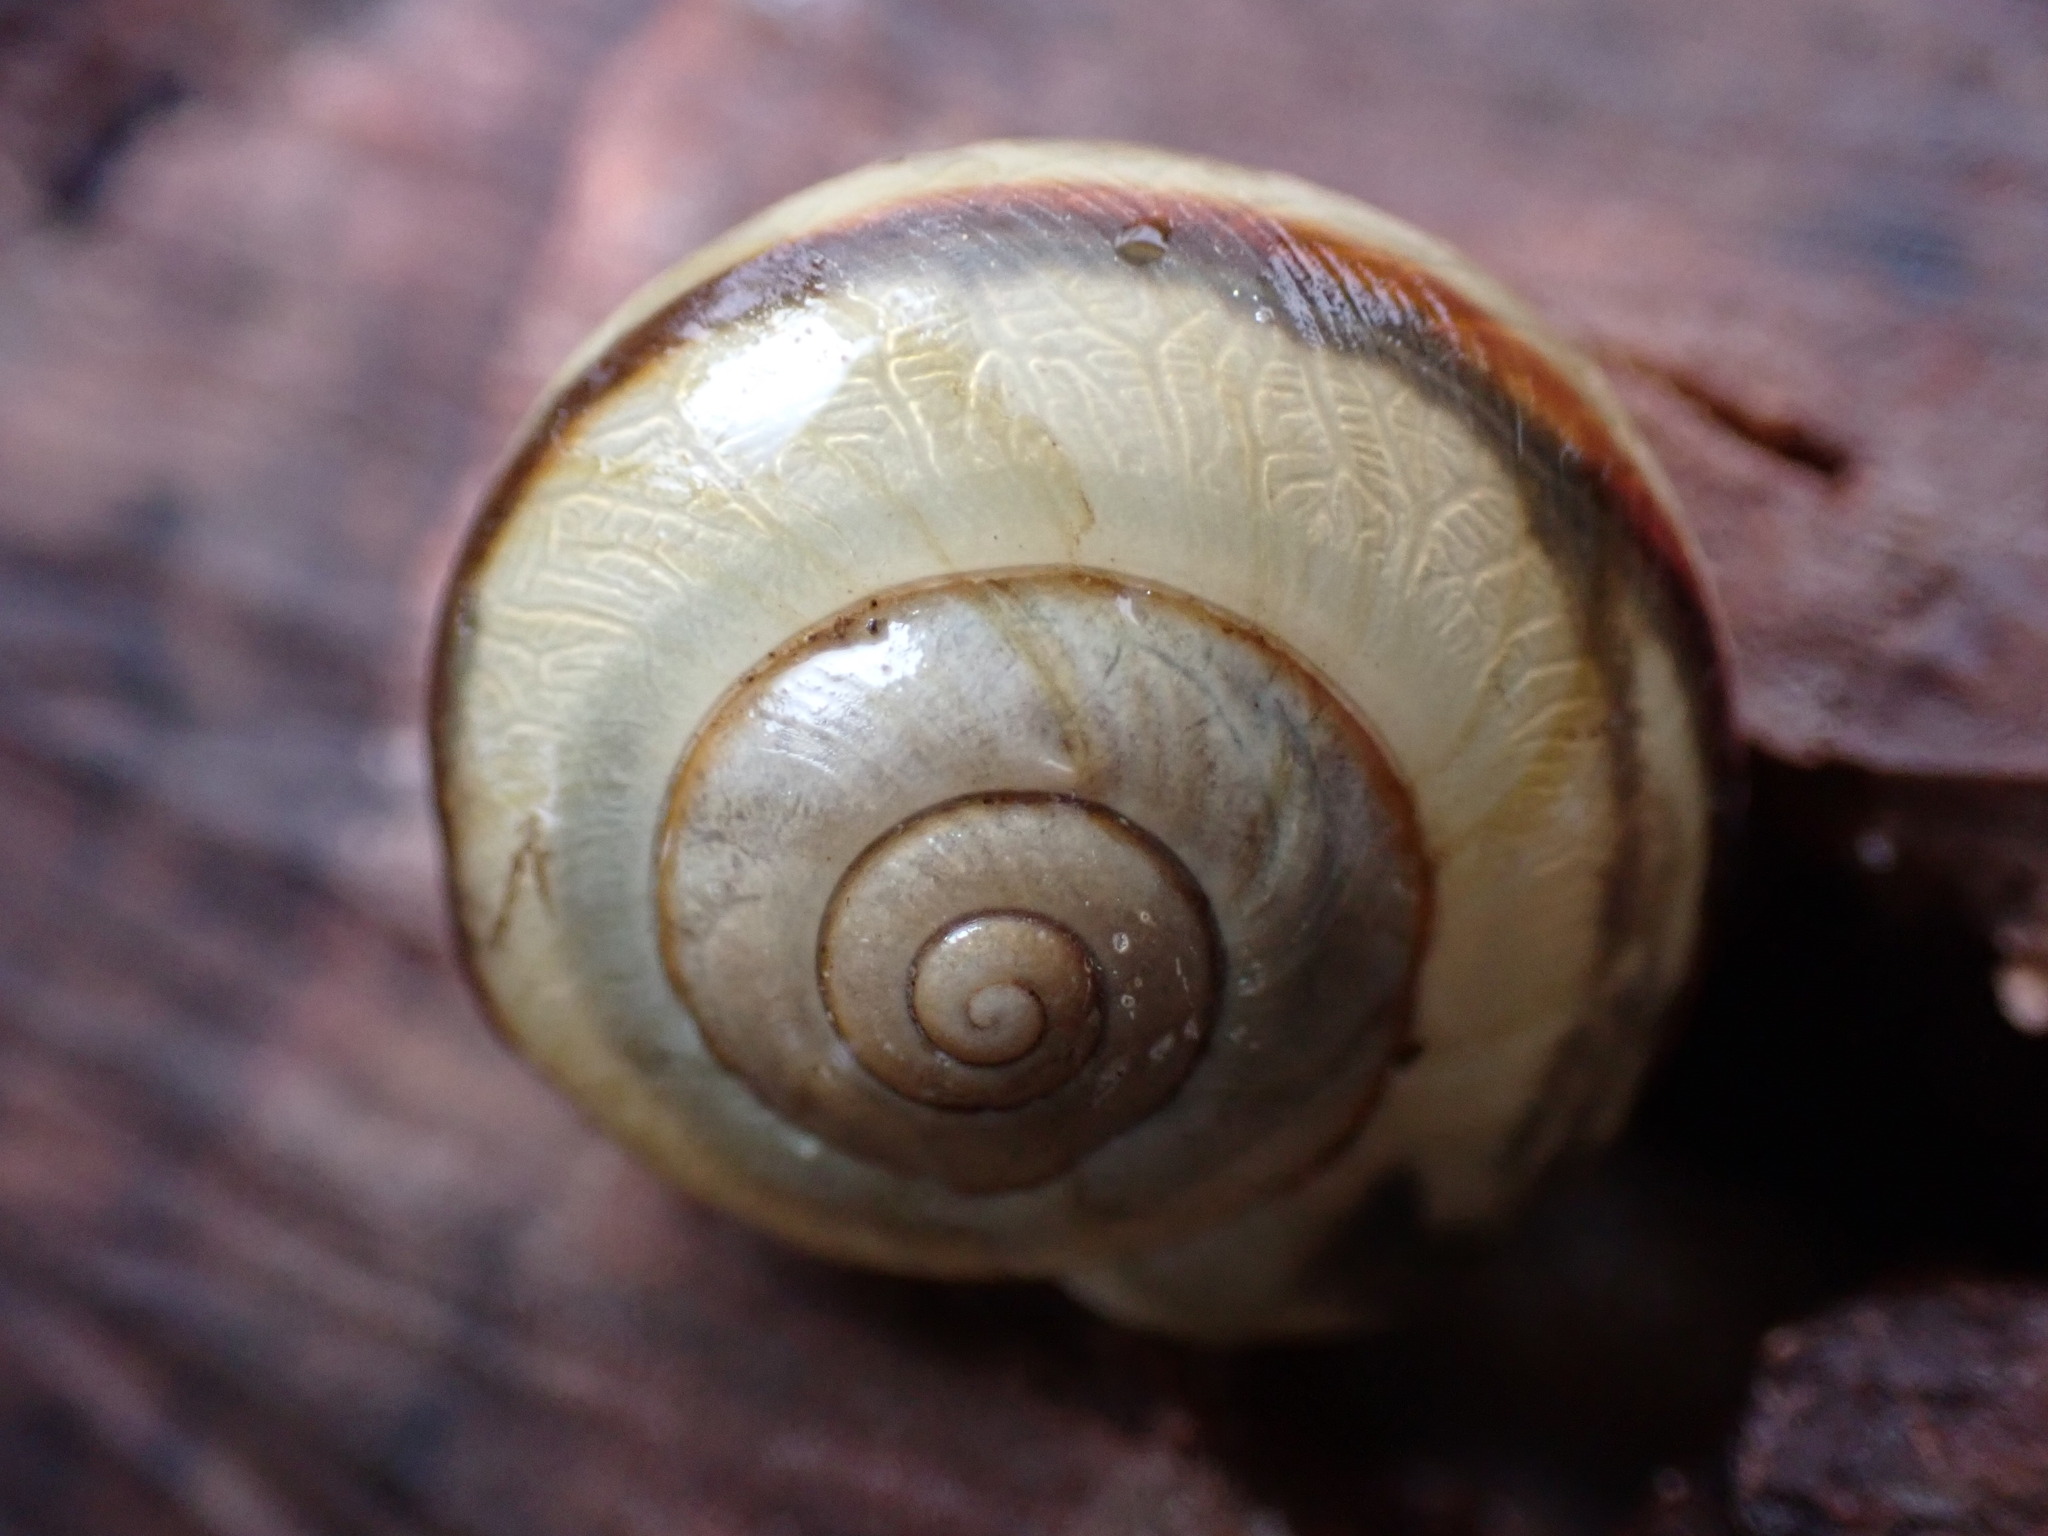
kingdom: Animalia
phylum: Mollusca
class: Gastropoda
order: Stylommatophora
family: Camaenidae
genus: Euhadra
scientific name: Euhadra herklotsi
